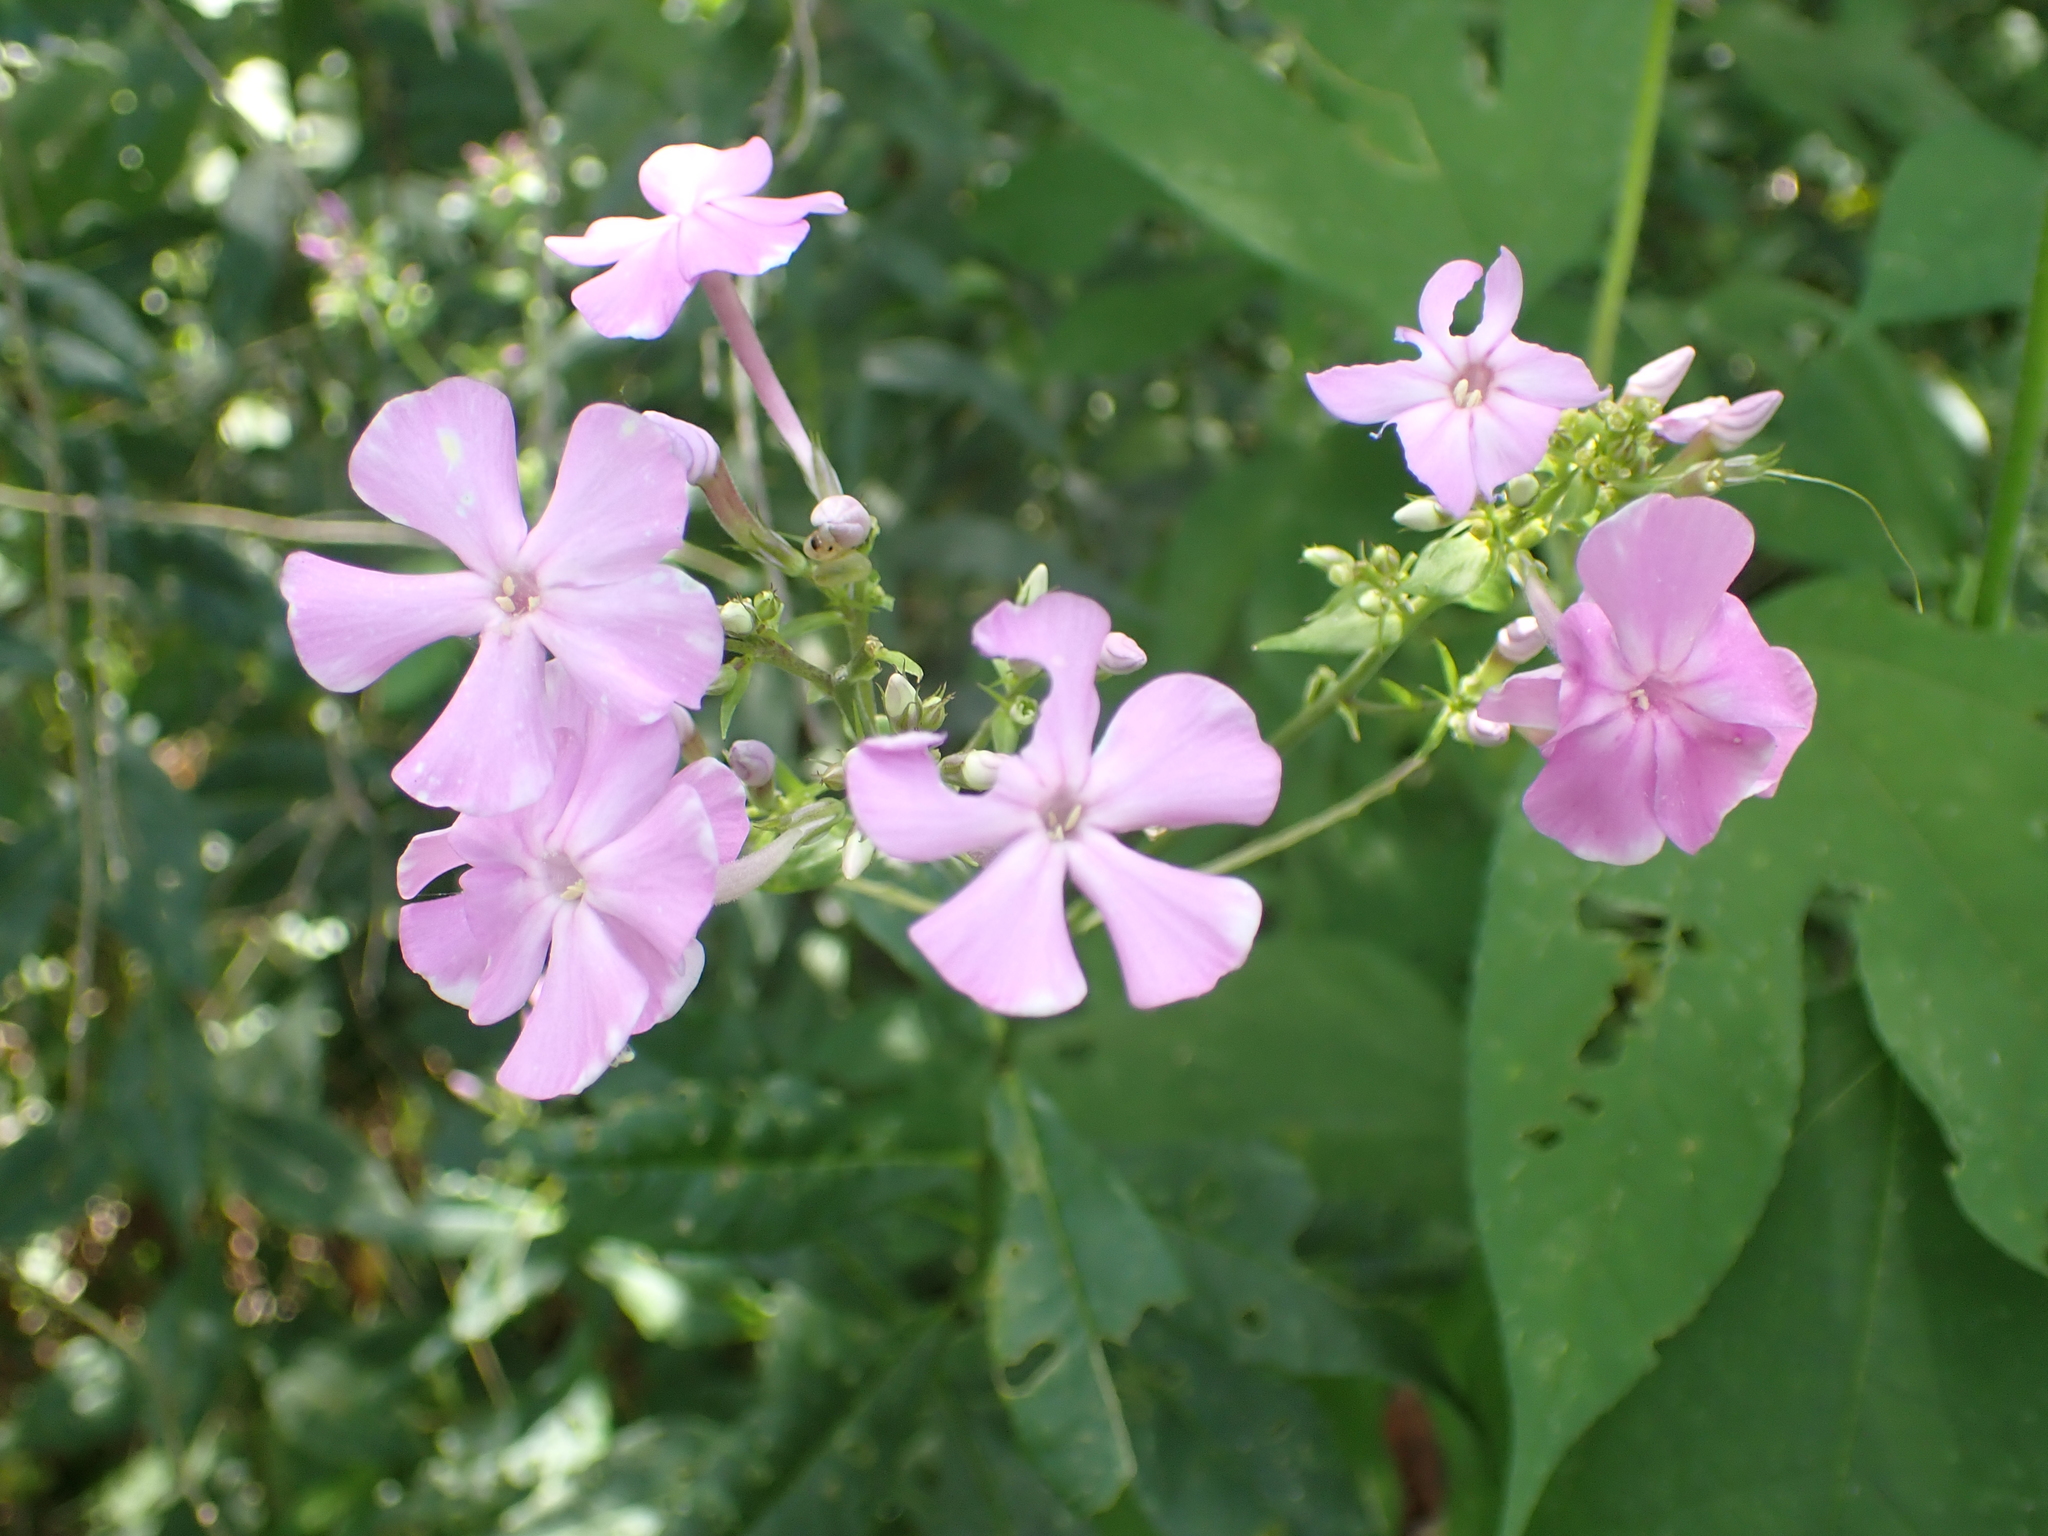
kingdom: Plantae
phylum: Tracheophyta
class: Magnoliopsida
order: Ericales
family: Polemoniaceae
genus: Phlox
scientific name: Phlox paniculata
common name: Fall phlox
